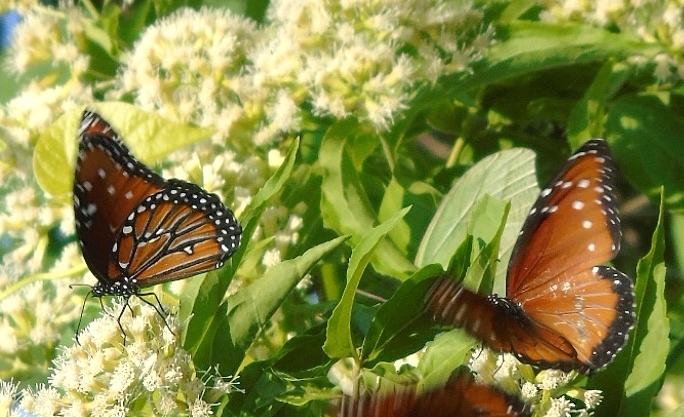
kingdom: Animalia
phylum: Arthropoda
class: Insecta
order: Lepidoptera
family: Nymphalidae
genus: Danaus
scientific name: Danaus gilippus
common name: Queen
